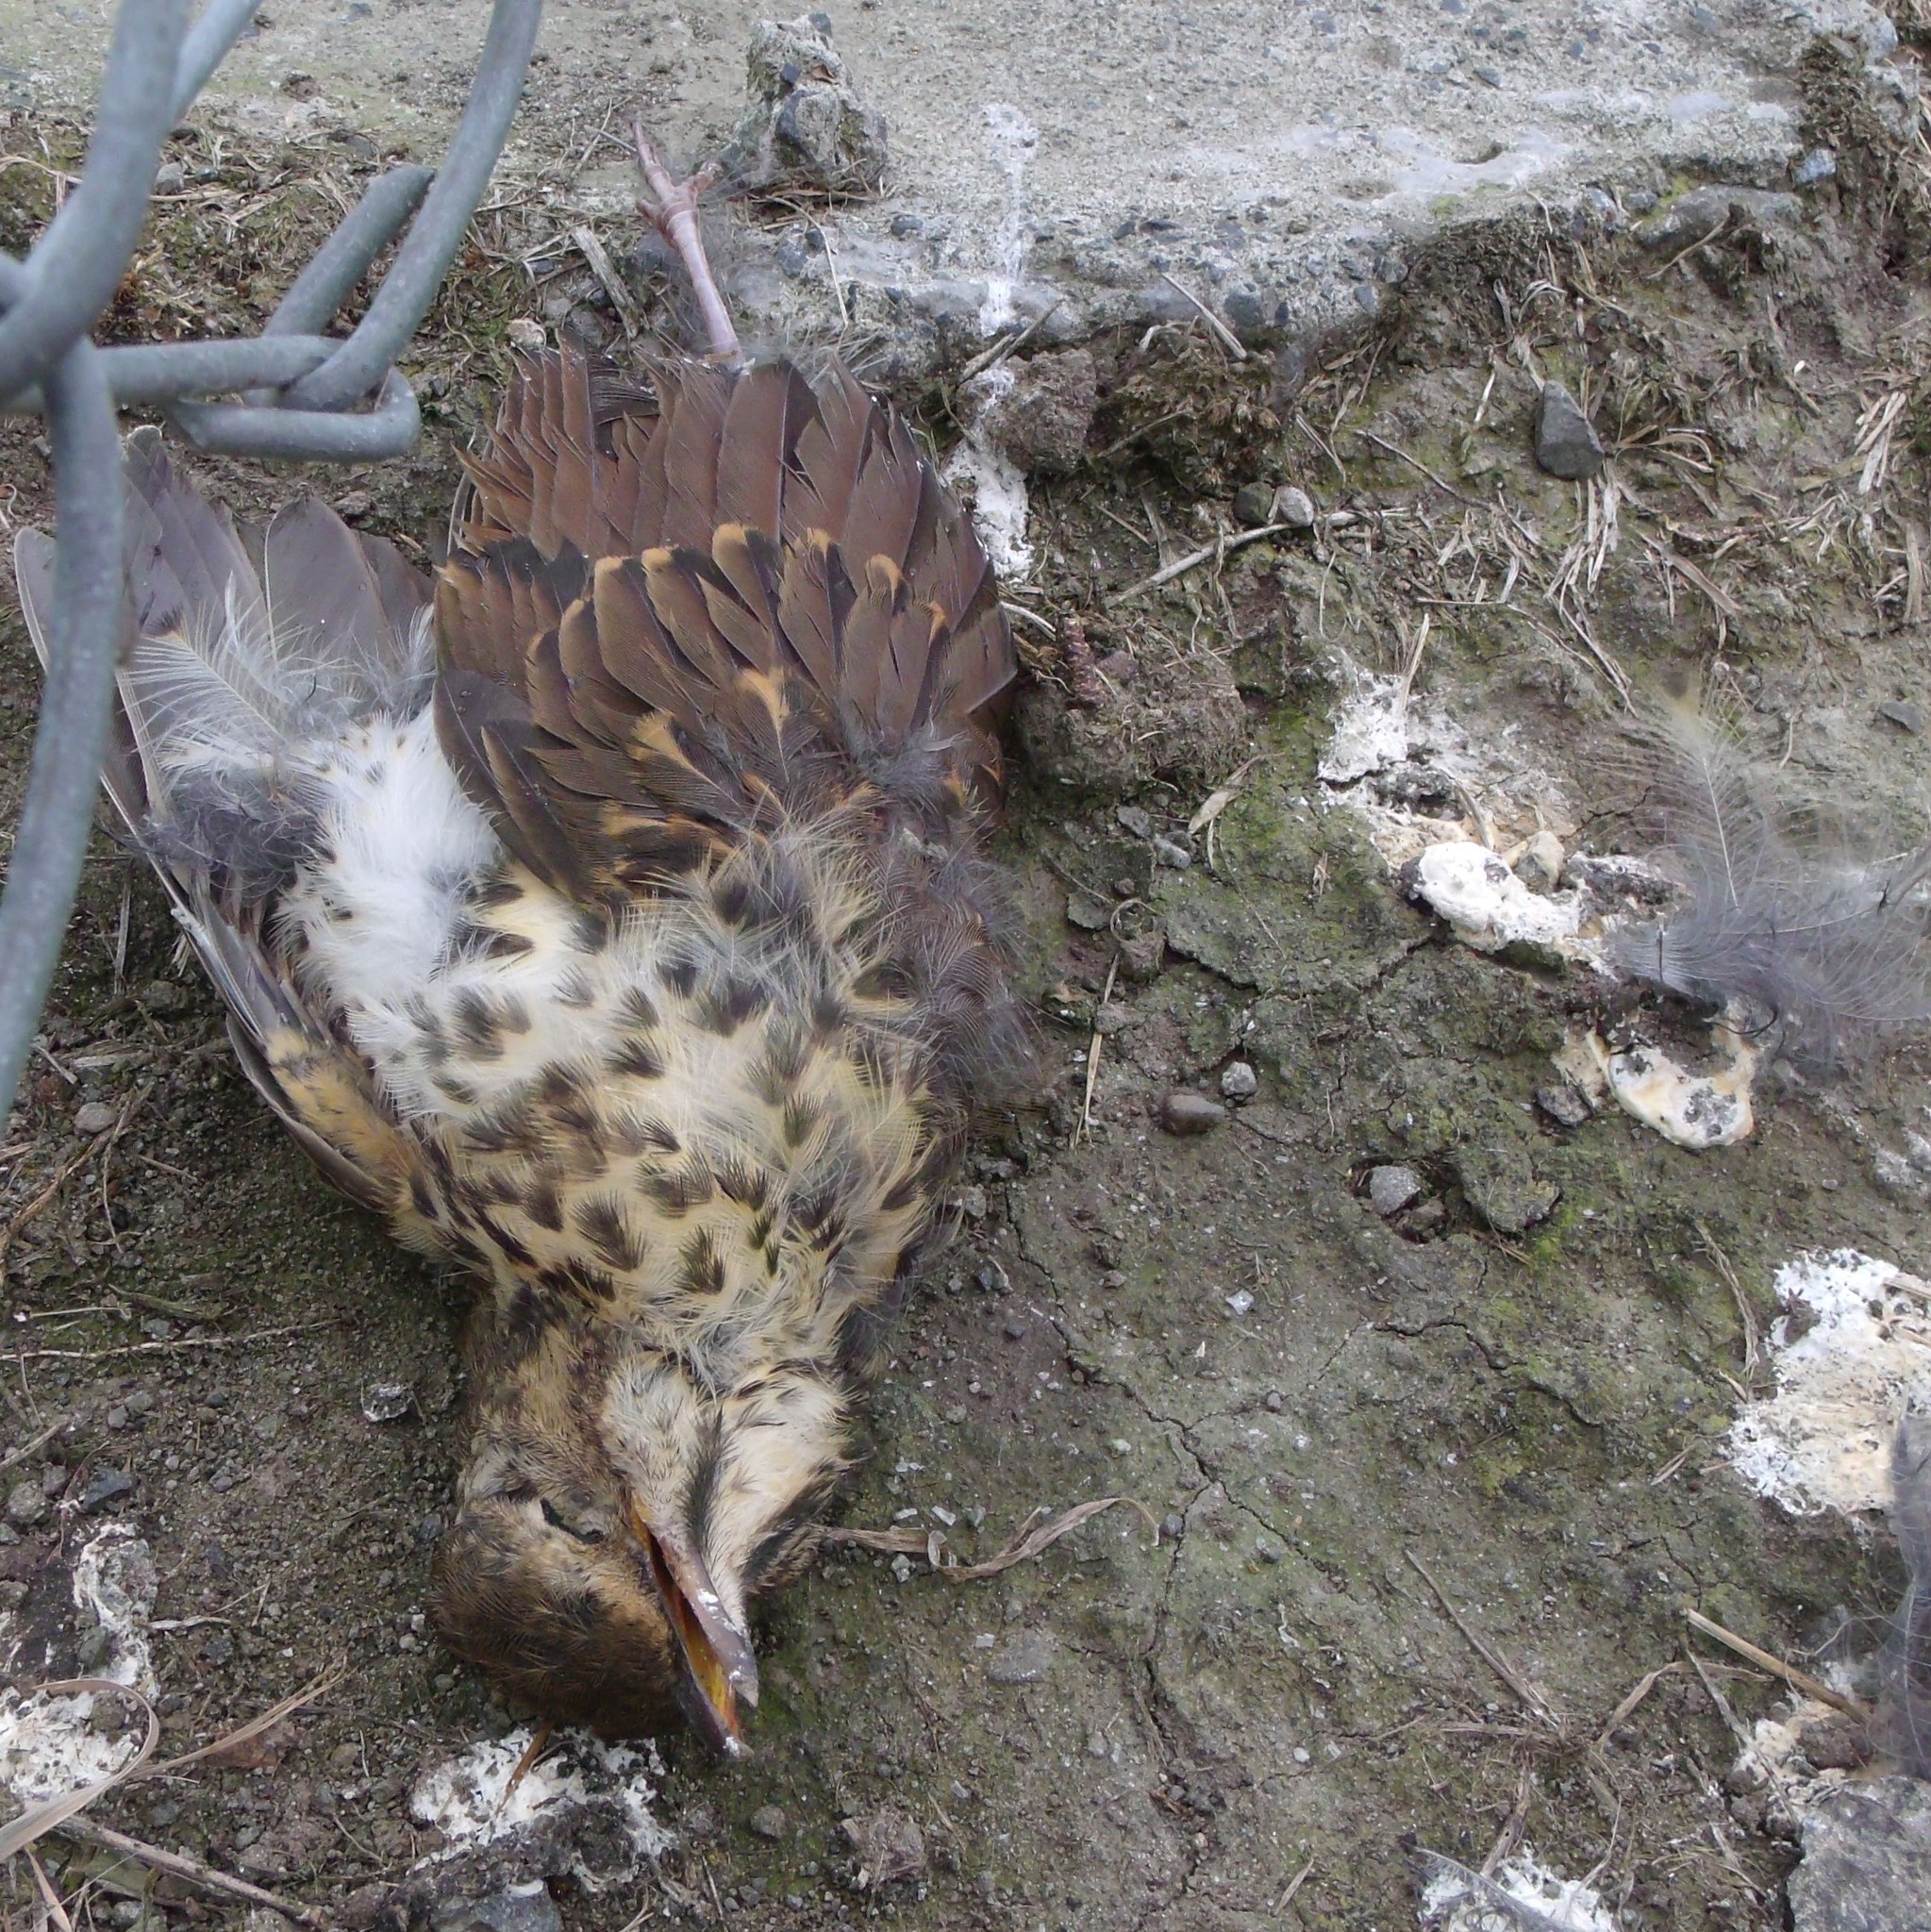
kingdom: Animalia
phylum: Chordata
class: Aves
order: Passeriformes
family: Turdidae
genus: Turdus
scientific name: Turdus philomelos
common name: Song thrush
